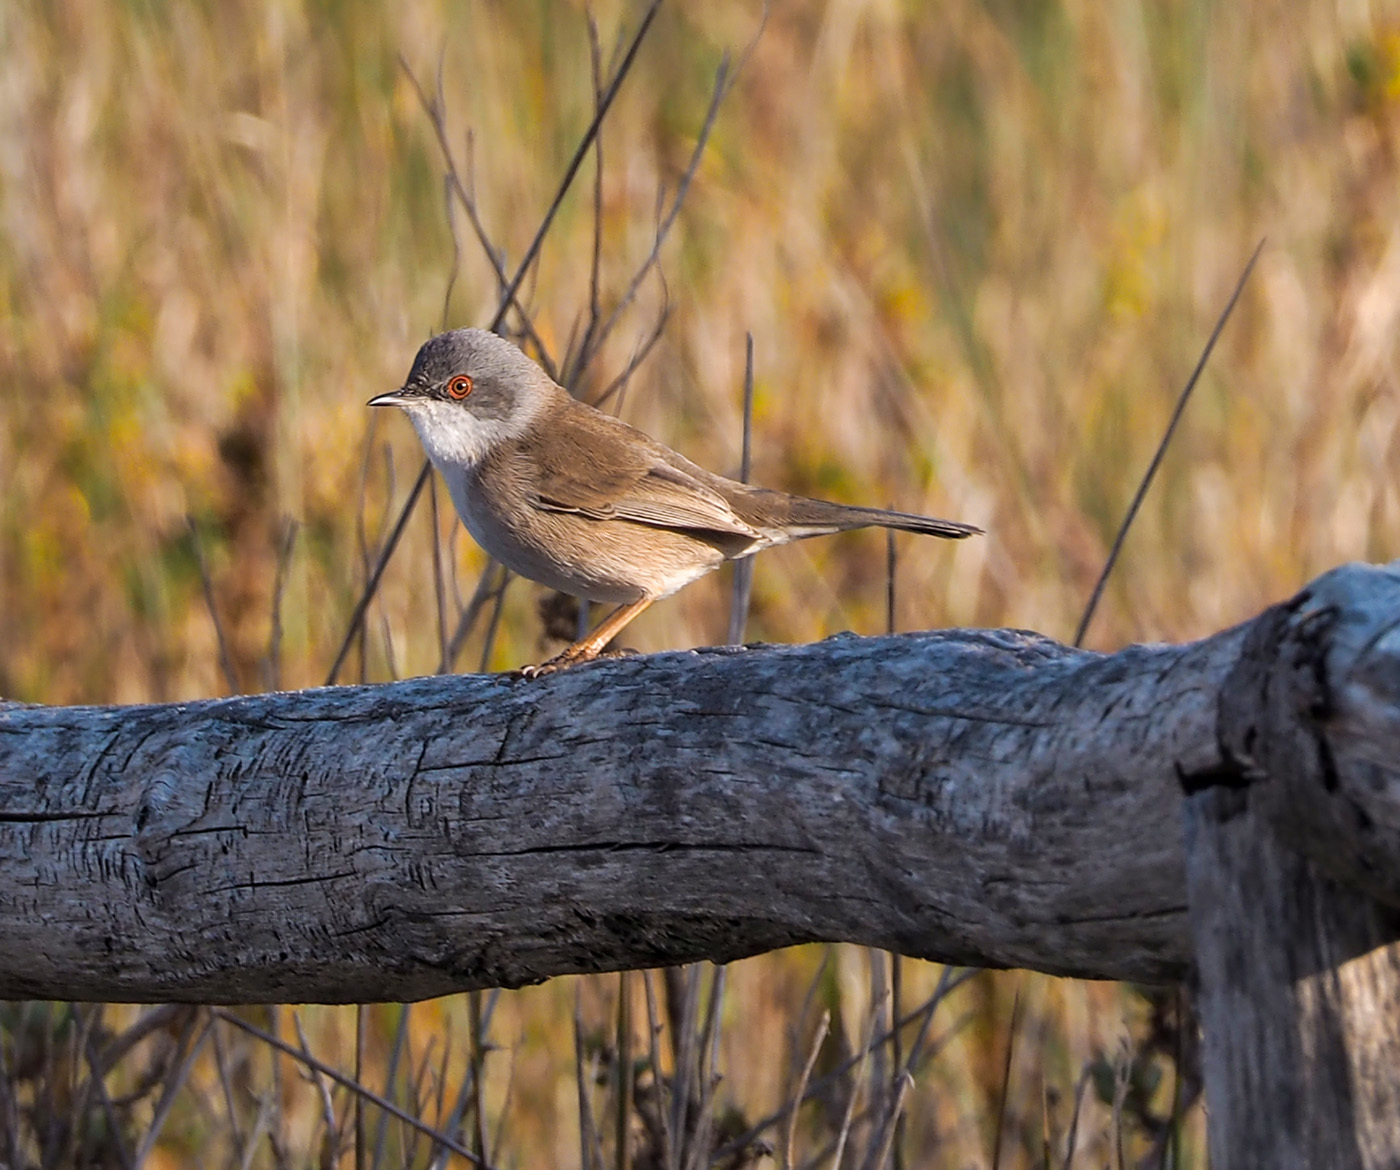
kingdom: Animalia
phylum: Chordata
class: Aves
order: Passeriformes
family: Sylviidae
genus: Curruca
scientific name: Curruca melanocephala
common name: Sardinian warbler
